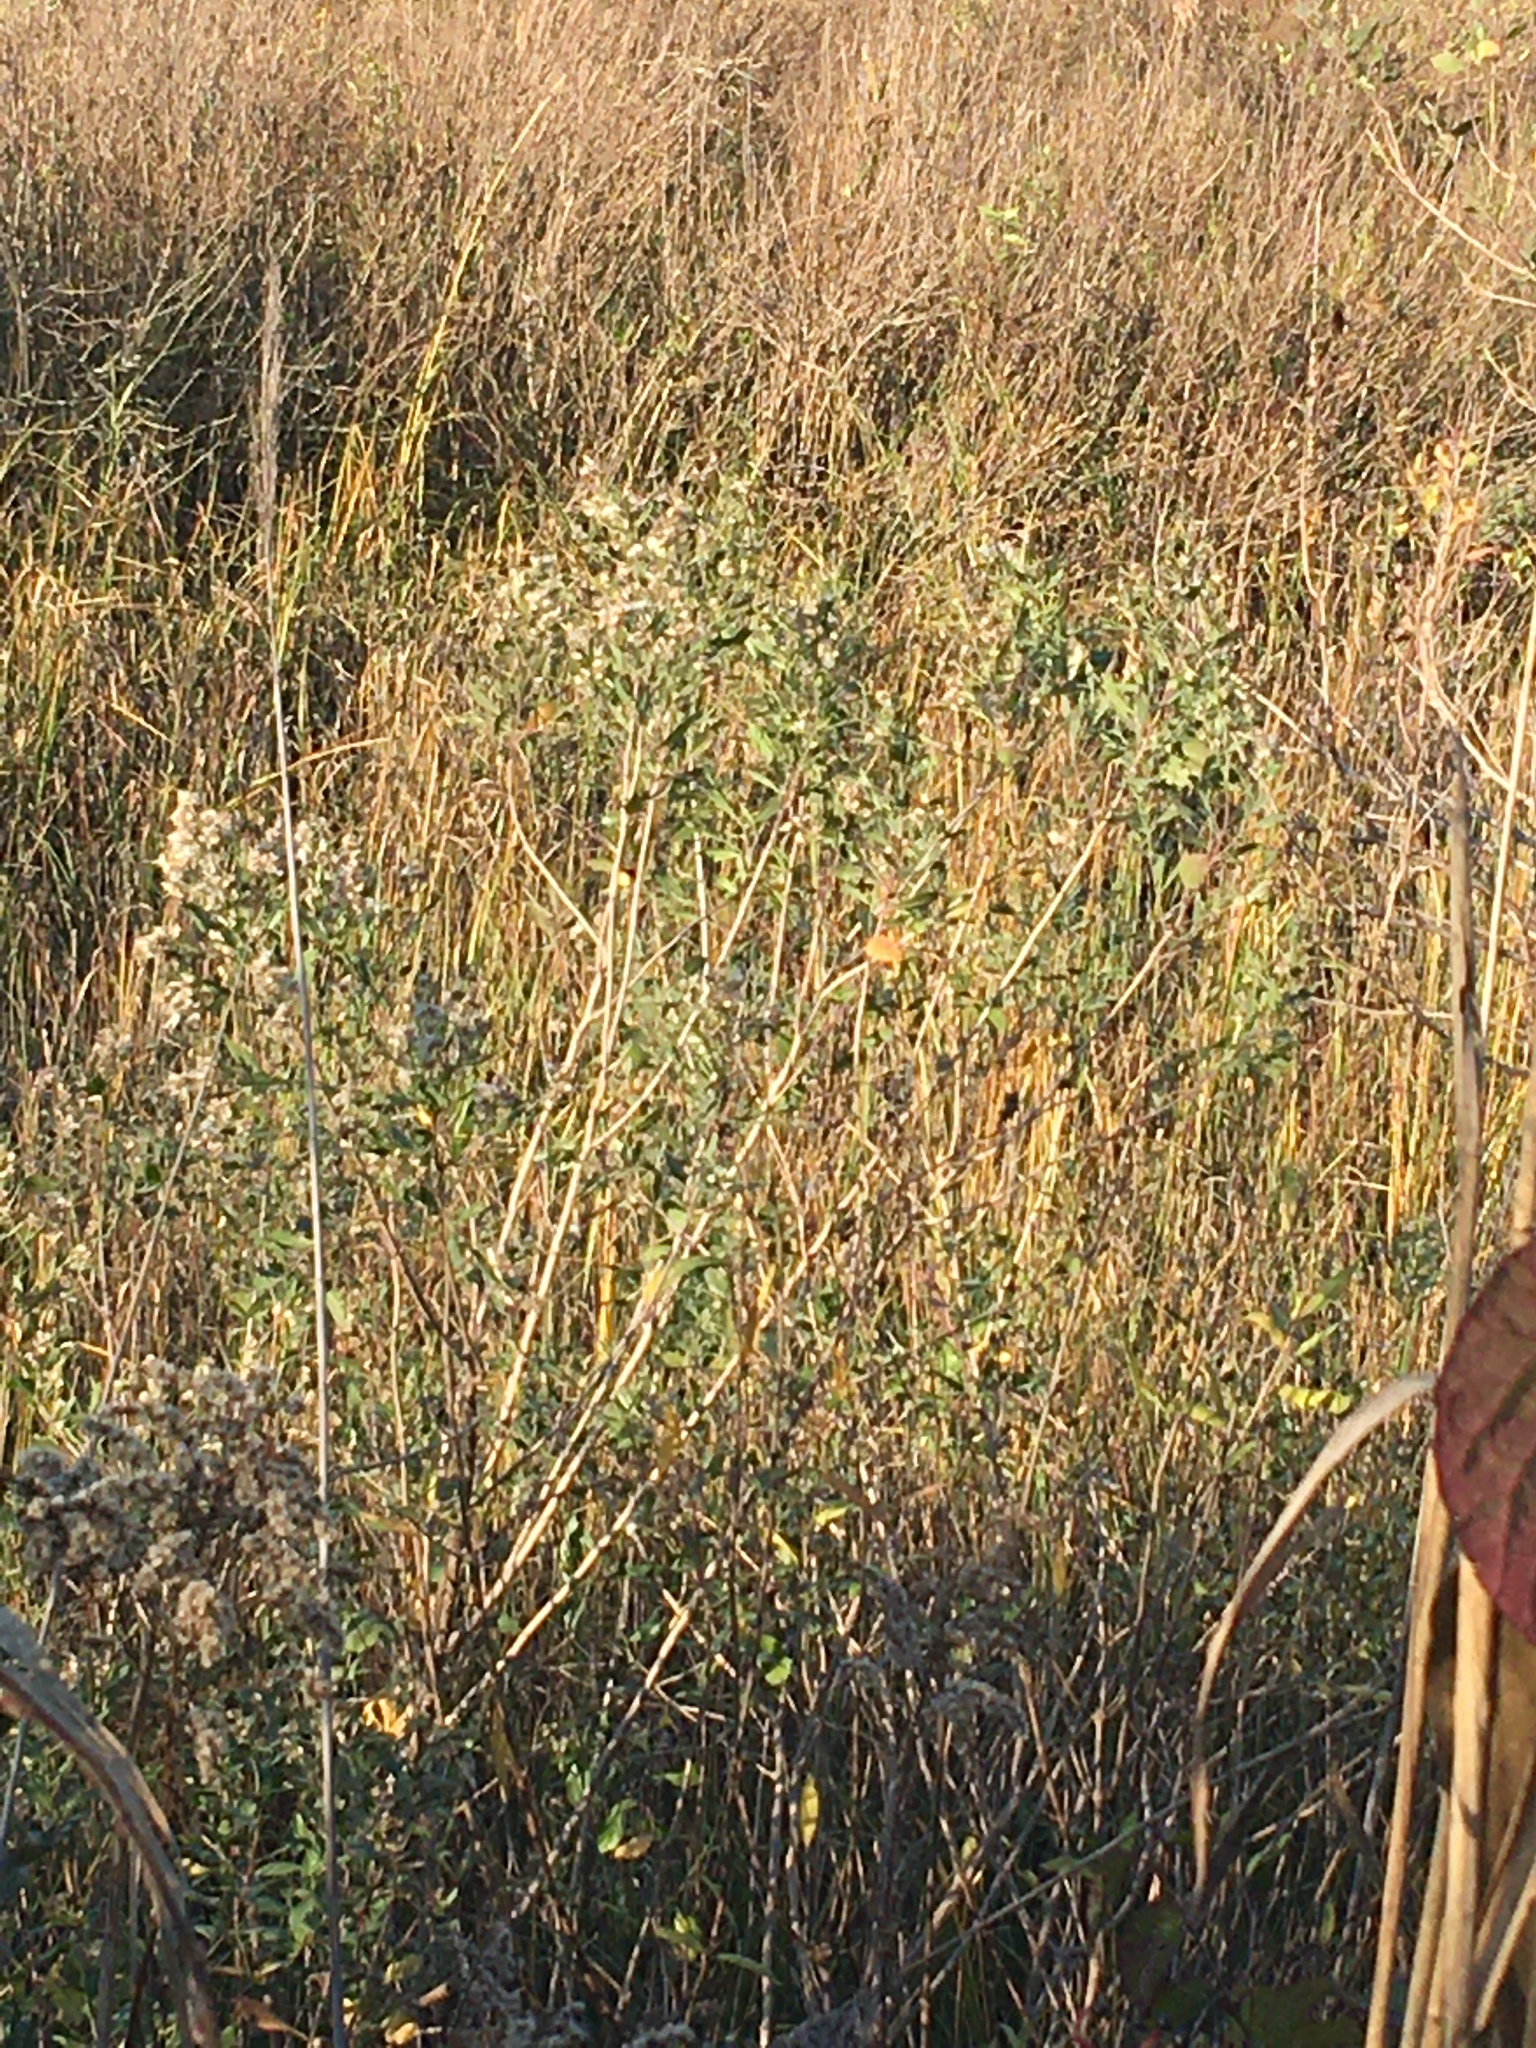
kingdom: Plantae
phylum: Tracheophyta
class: Magnoliopsida
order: Asterales
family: Asteraceae
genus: Baccharis
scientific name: Baccharis halimifolia
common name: Eastern baccharis
